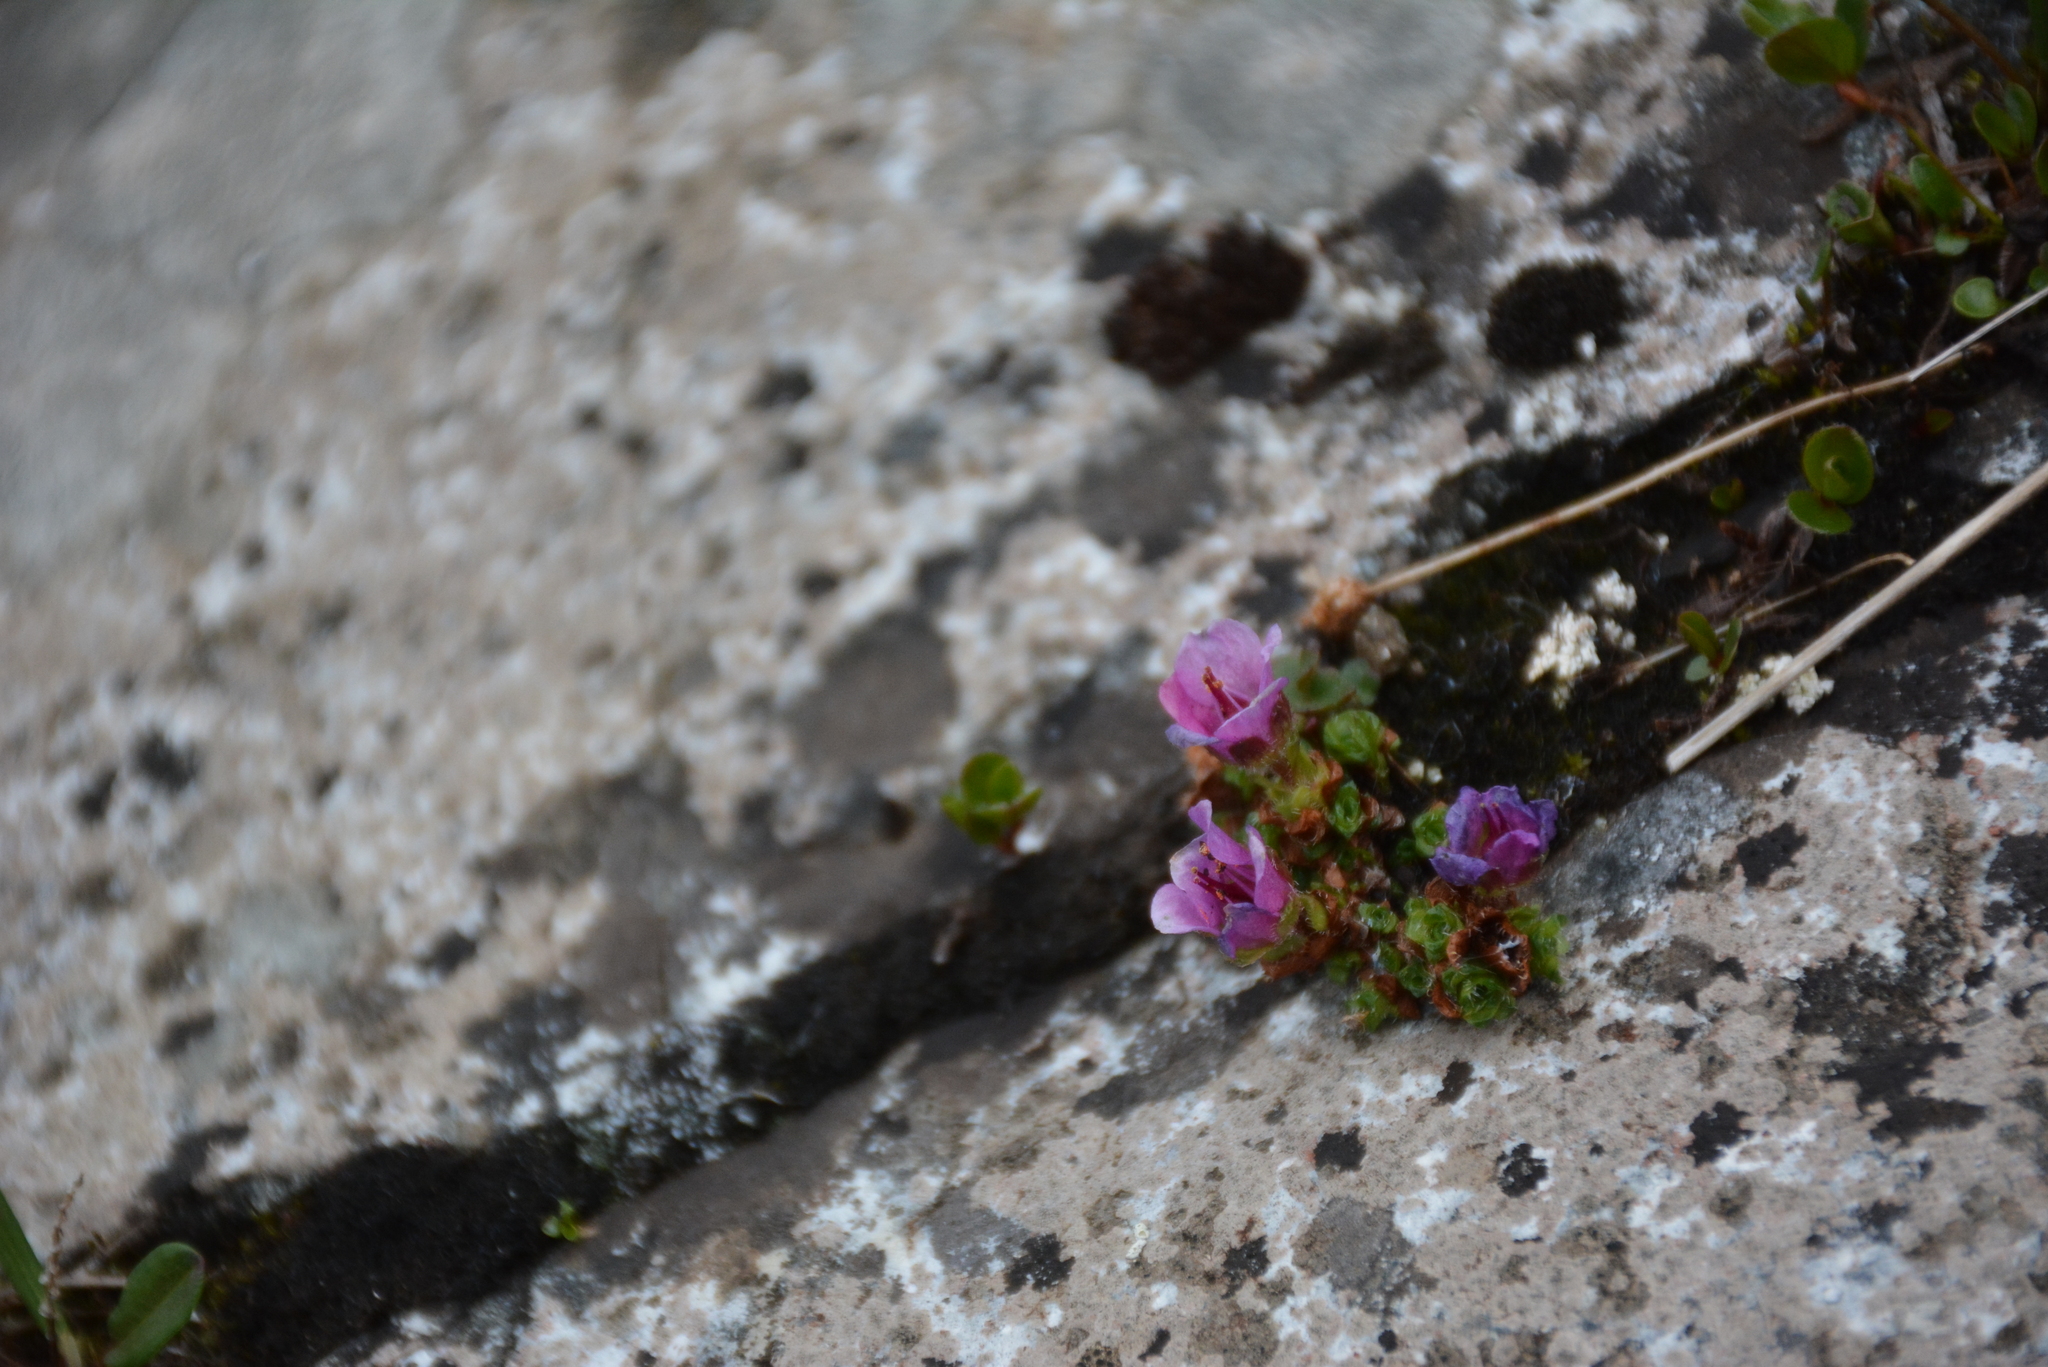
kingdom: Plantae
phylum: Tracheophyta
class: Magnoliopsida
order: Saxifragales
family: Saxifragaceae
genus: Saxifraga
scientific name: Saxifraga oppositifolia
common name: Purple saxifrage
